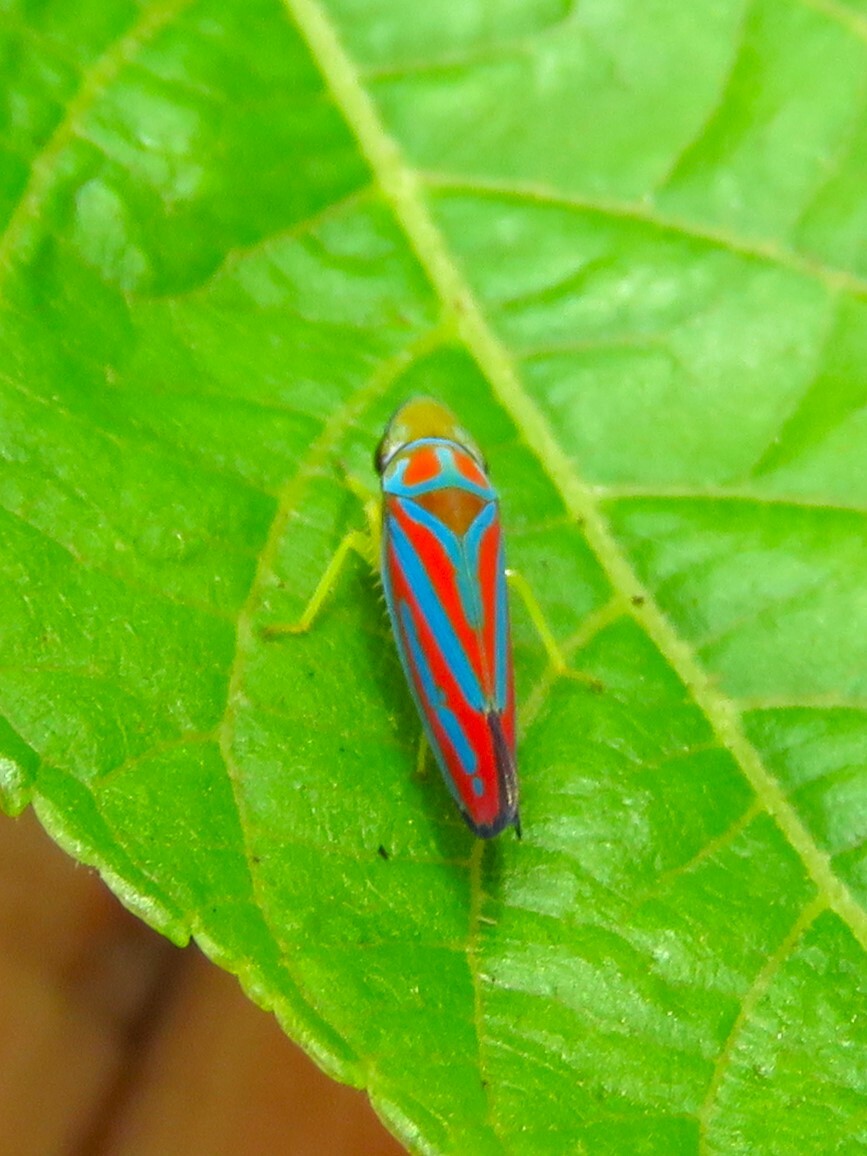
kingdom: Animalia
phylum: Arthropoda
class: Insecta
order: Hemiptera
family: Cicadellidae
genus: Graphocephala
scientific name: Graphocephala coccinea
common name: Candy-striped leafhopper
